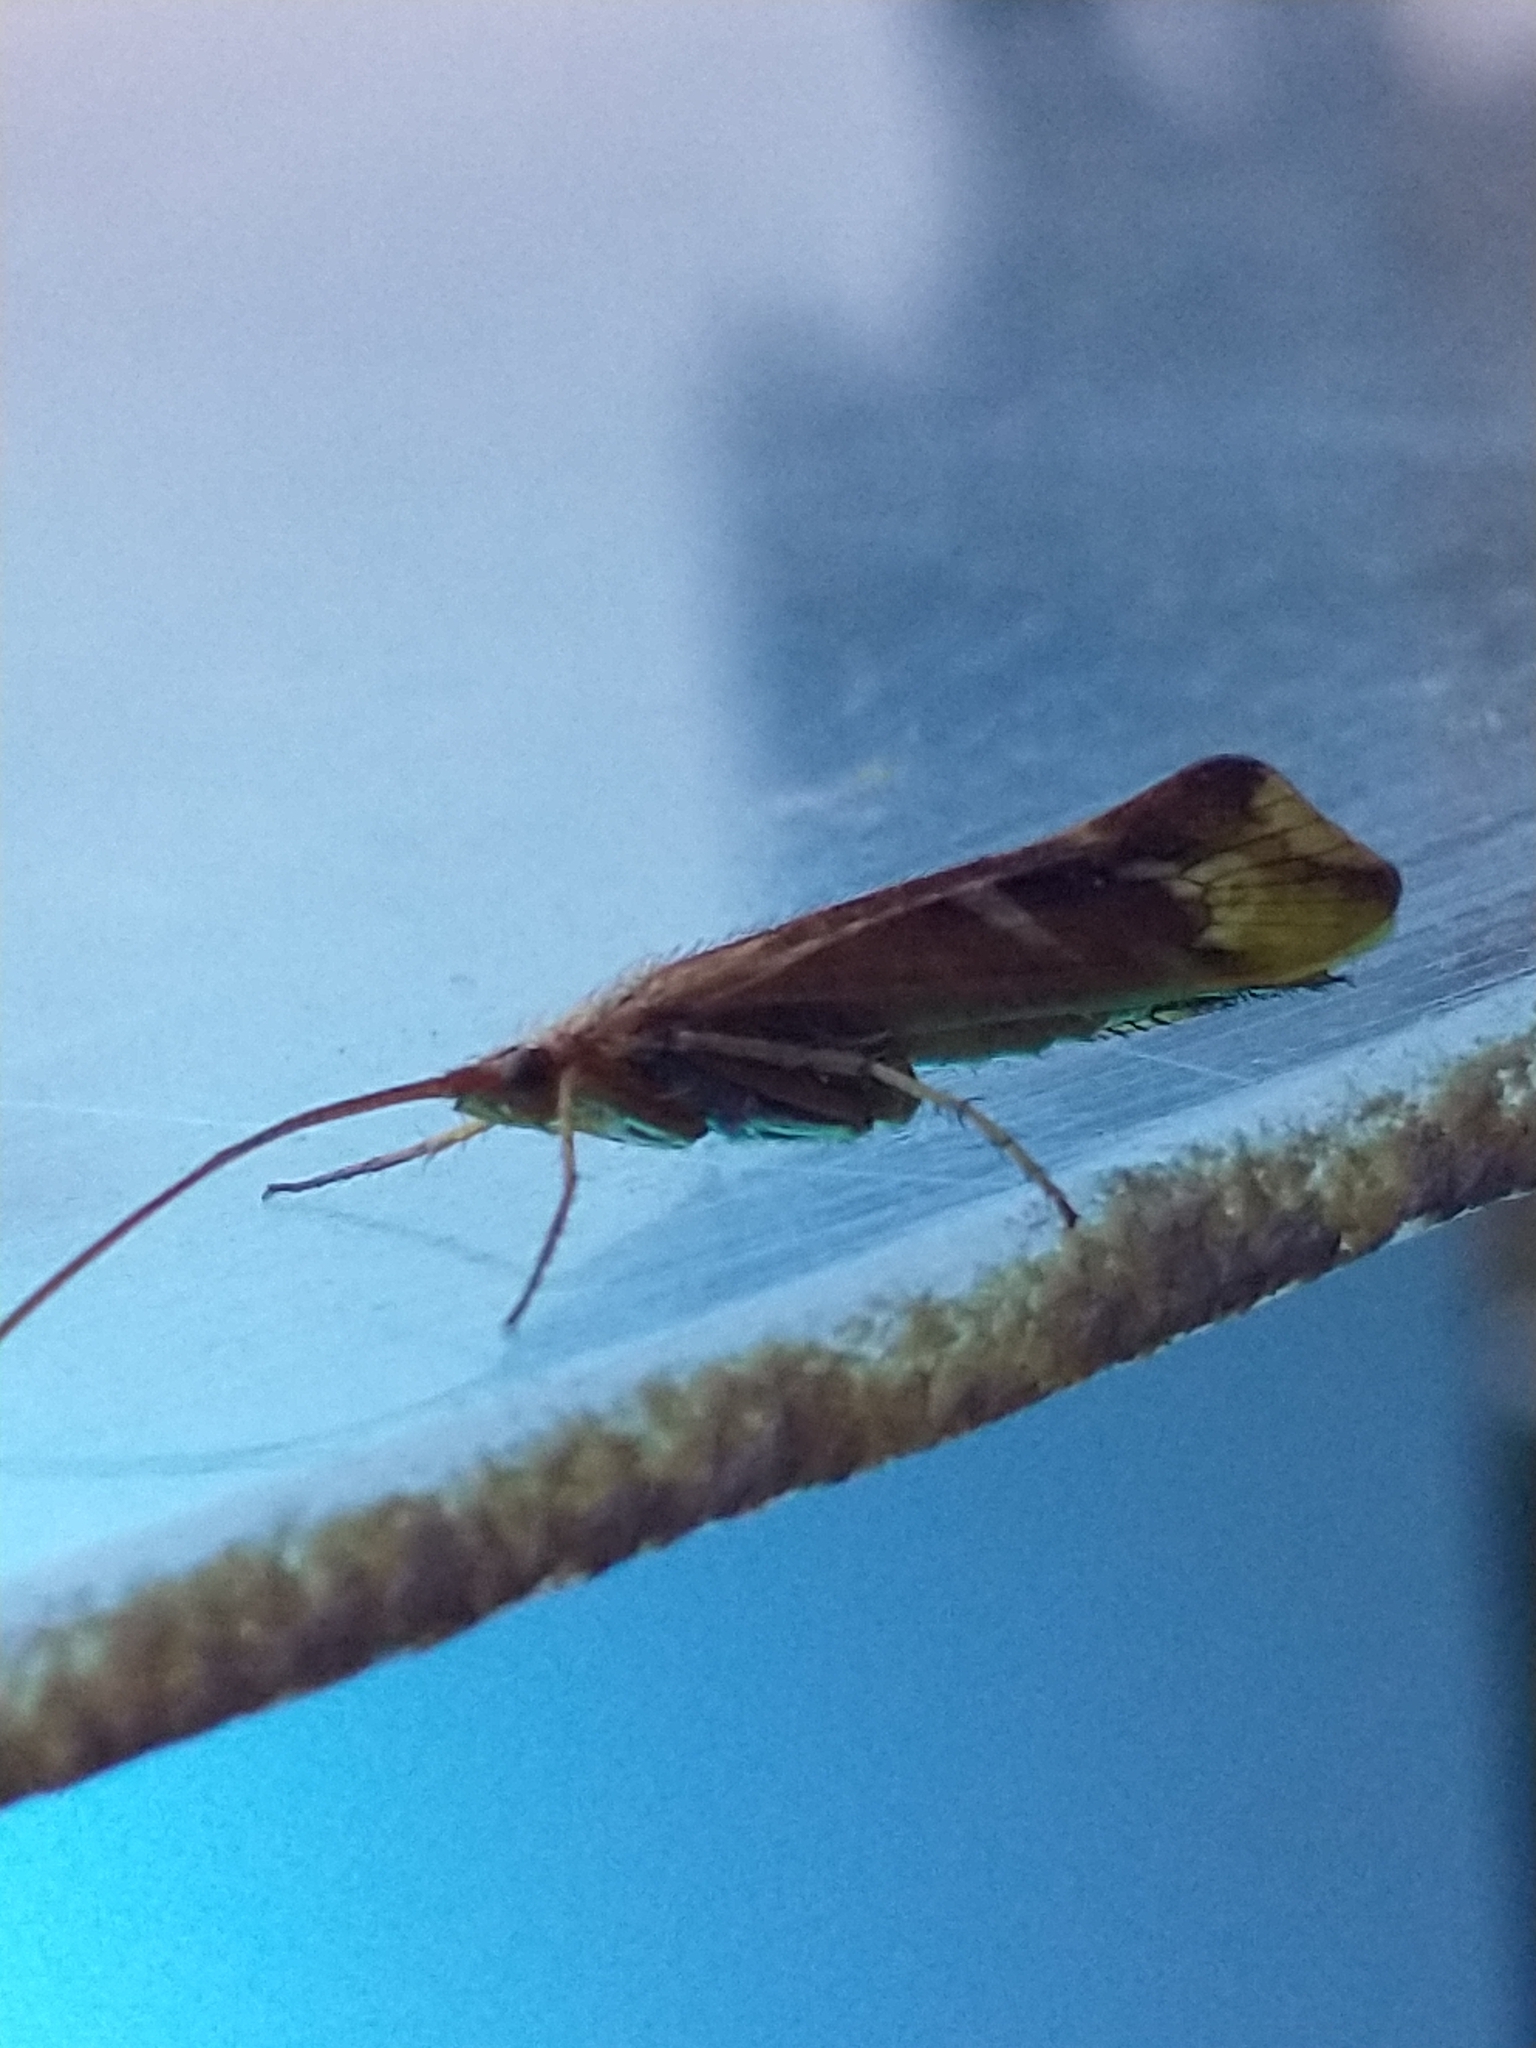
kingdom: Animalia
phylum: Arthropoda
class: Insecta
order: Trichoptera
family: Limnephilidae
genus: Limnephilus
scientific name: Limnephilus lunatus
